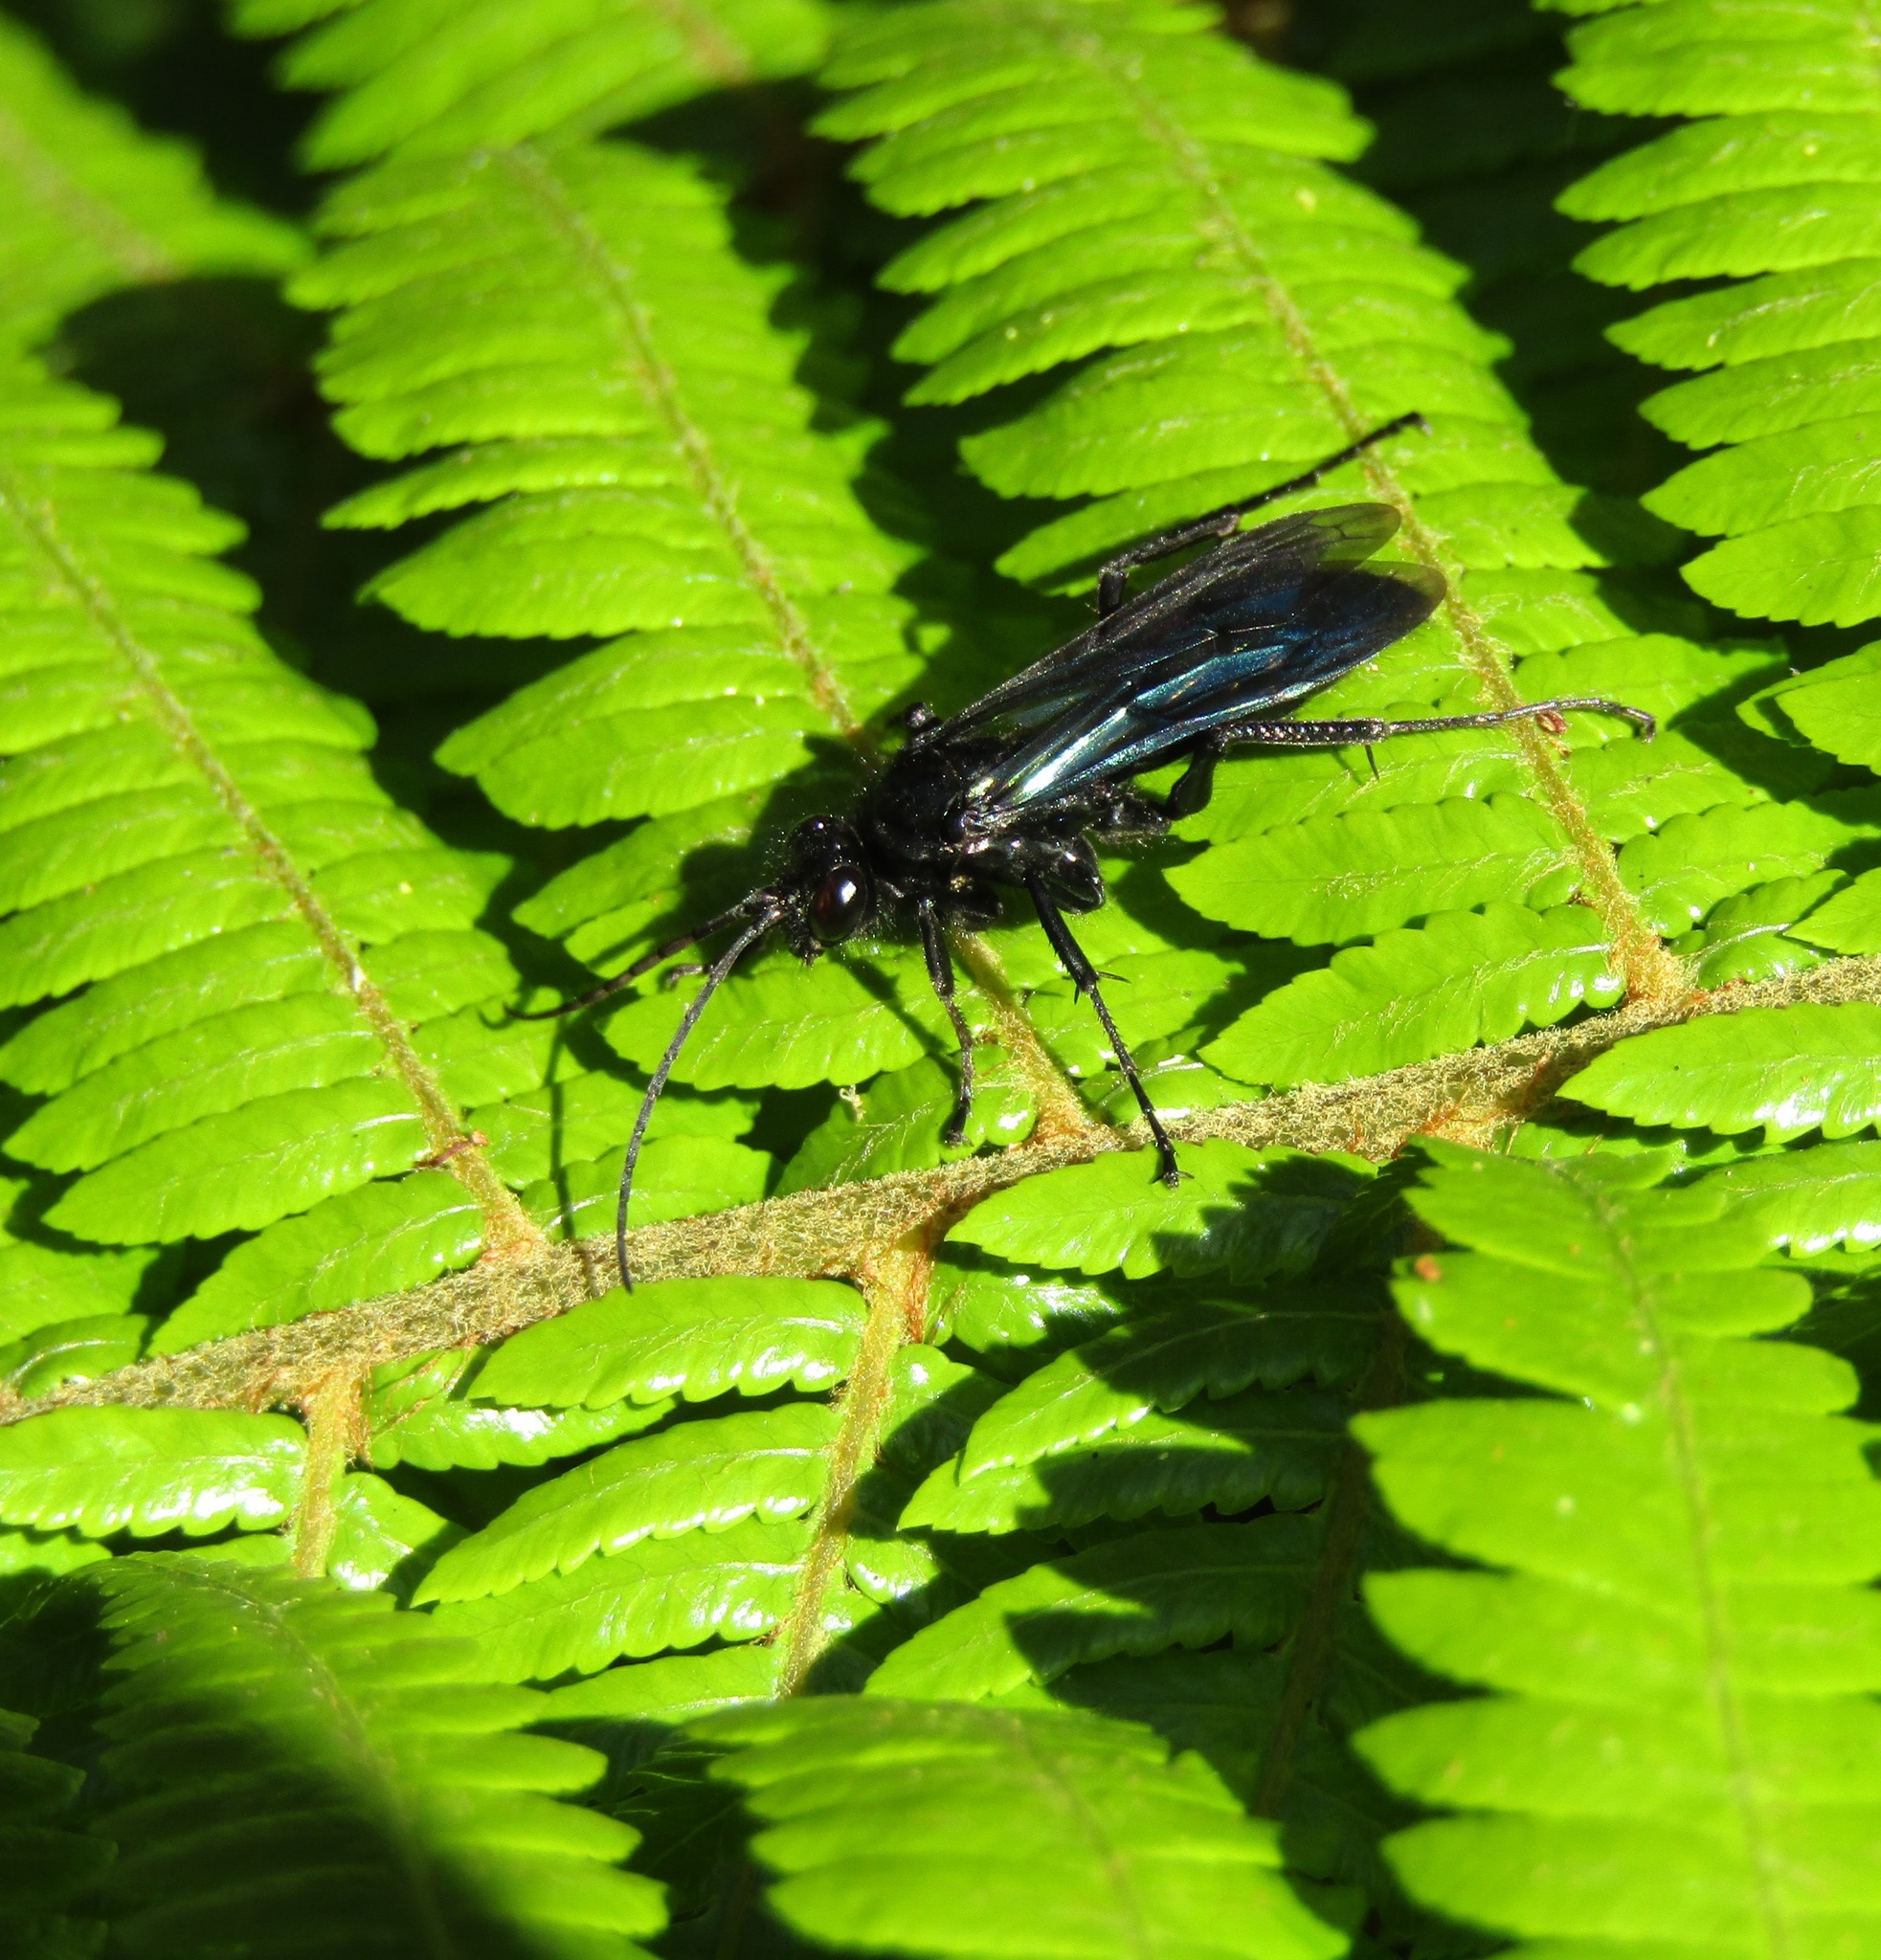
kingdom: Animalia
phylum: Arthropoda
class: Insecta
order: Hymenoptera
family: Pompilidae
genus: Priocnemis
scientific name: Priocnemis monachus
